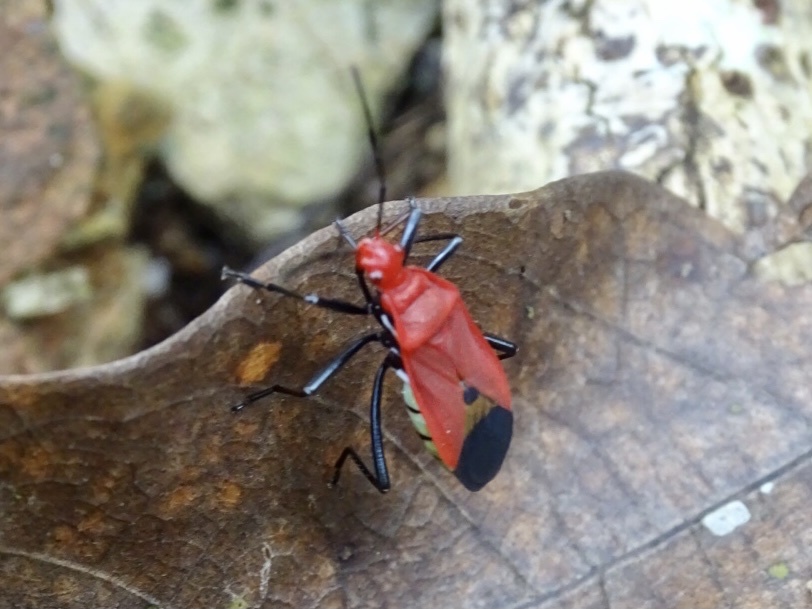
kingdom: Animalia
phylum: Arthropoda
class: Insecta
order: Hemiptera
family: Pyrrhocoridae
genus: Dindymus
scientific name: Dindymus
